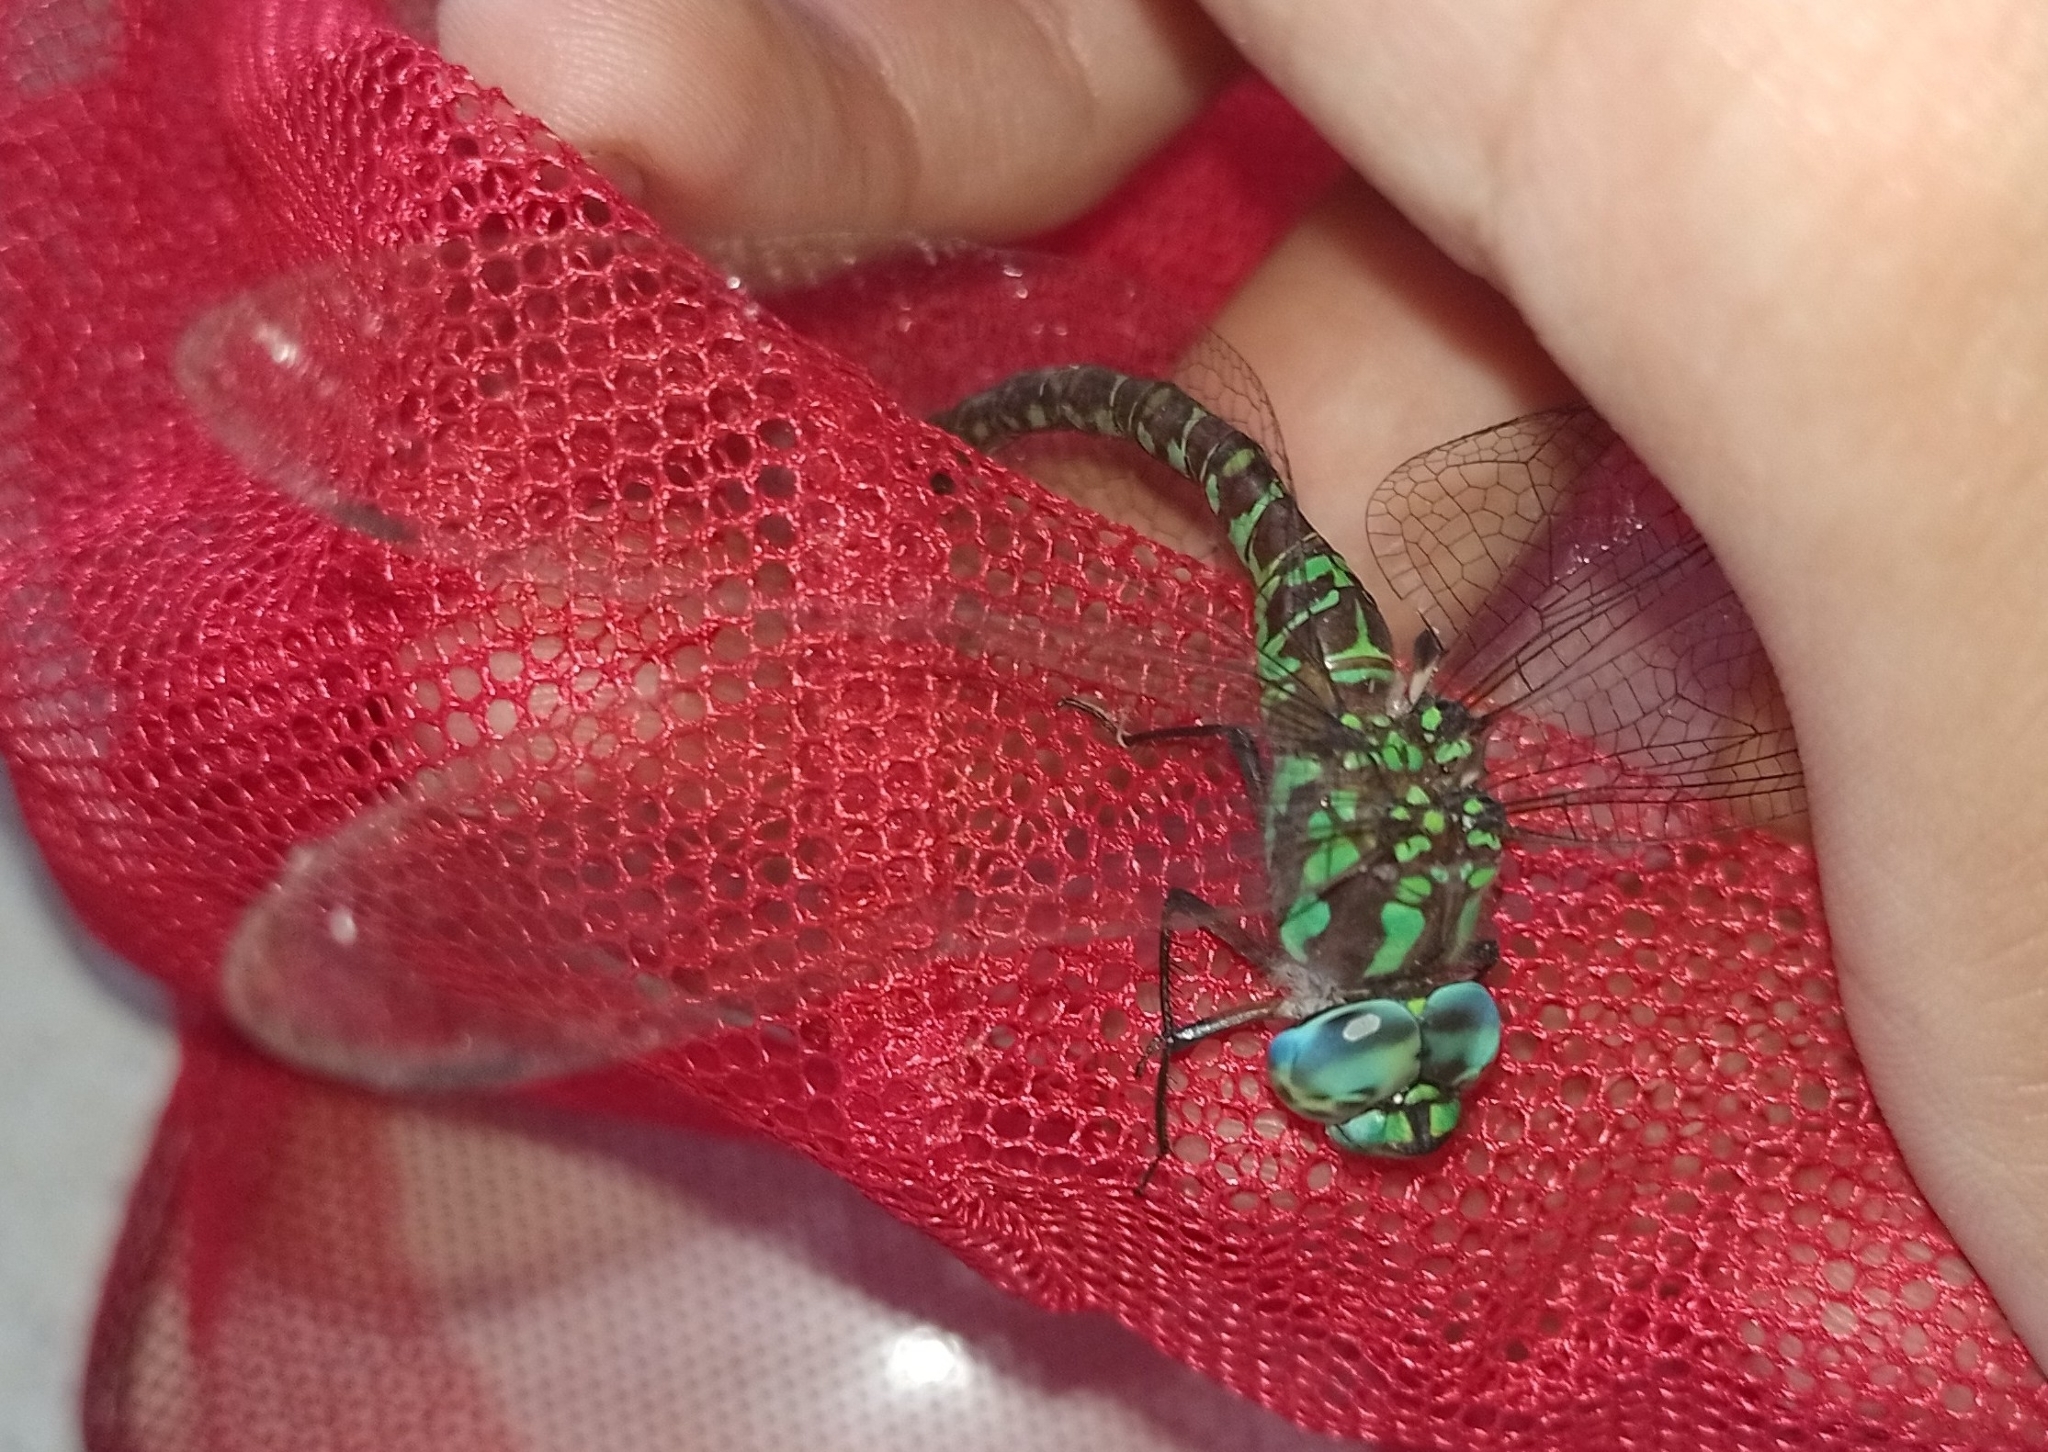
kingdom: Animalia
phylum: Arthropoda
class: Insecta
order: Odonata
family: Aeshnidae
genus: Rhionaeschna
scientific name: Rhionaeschna planaltica
